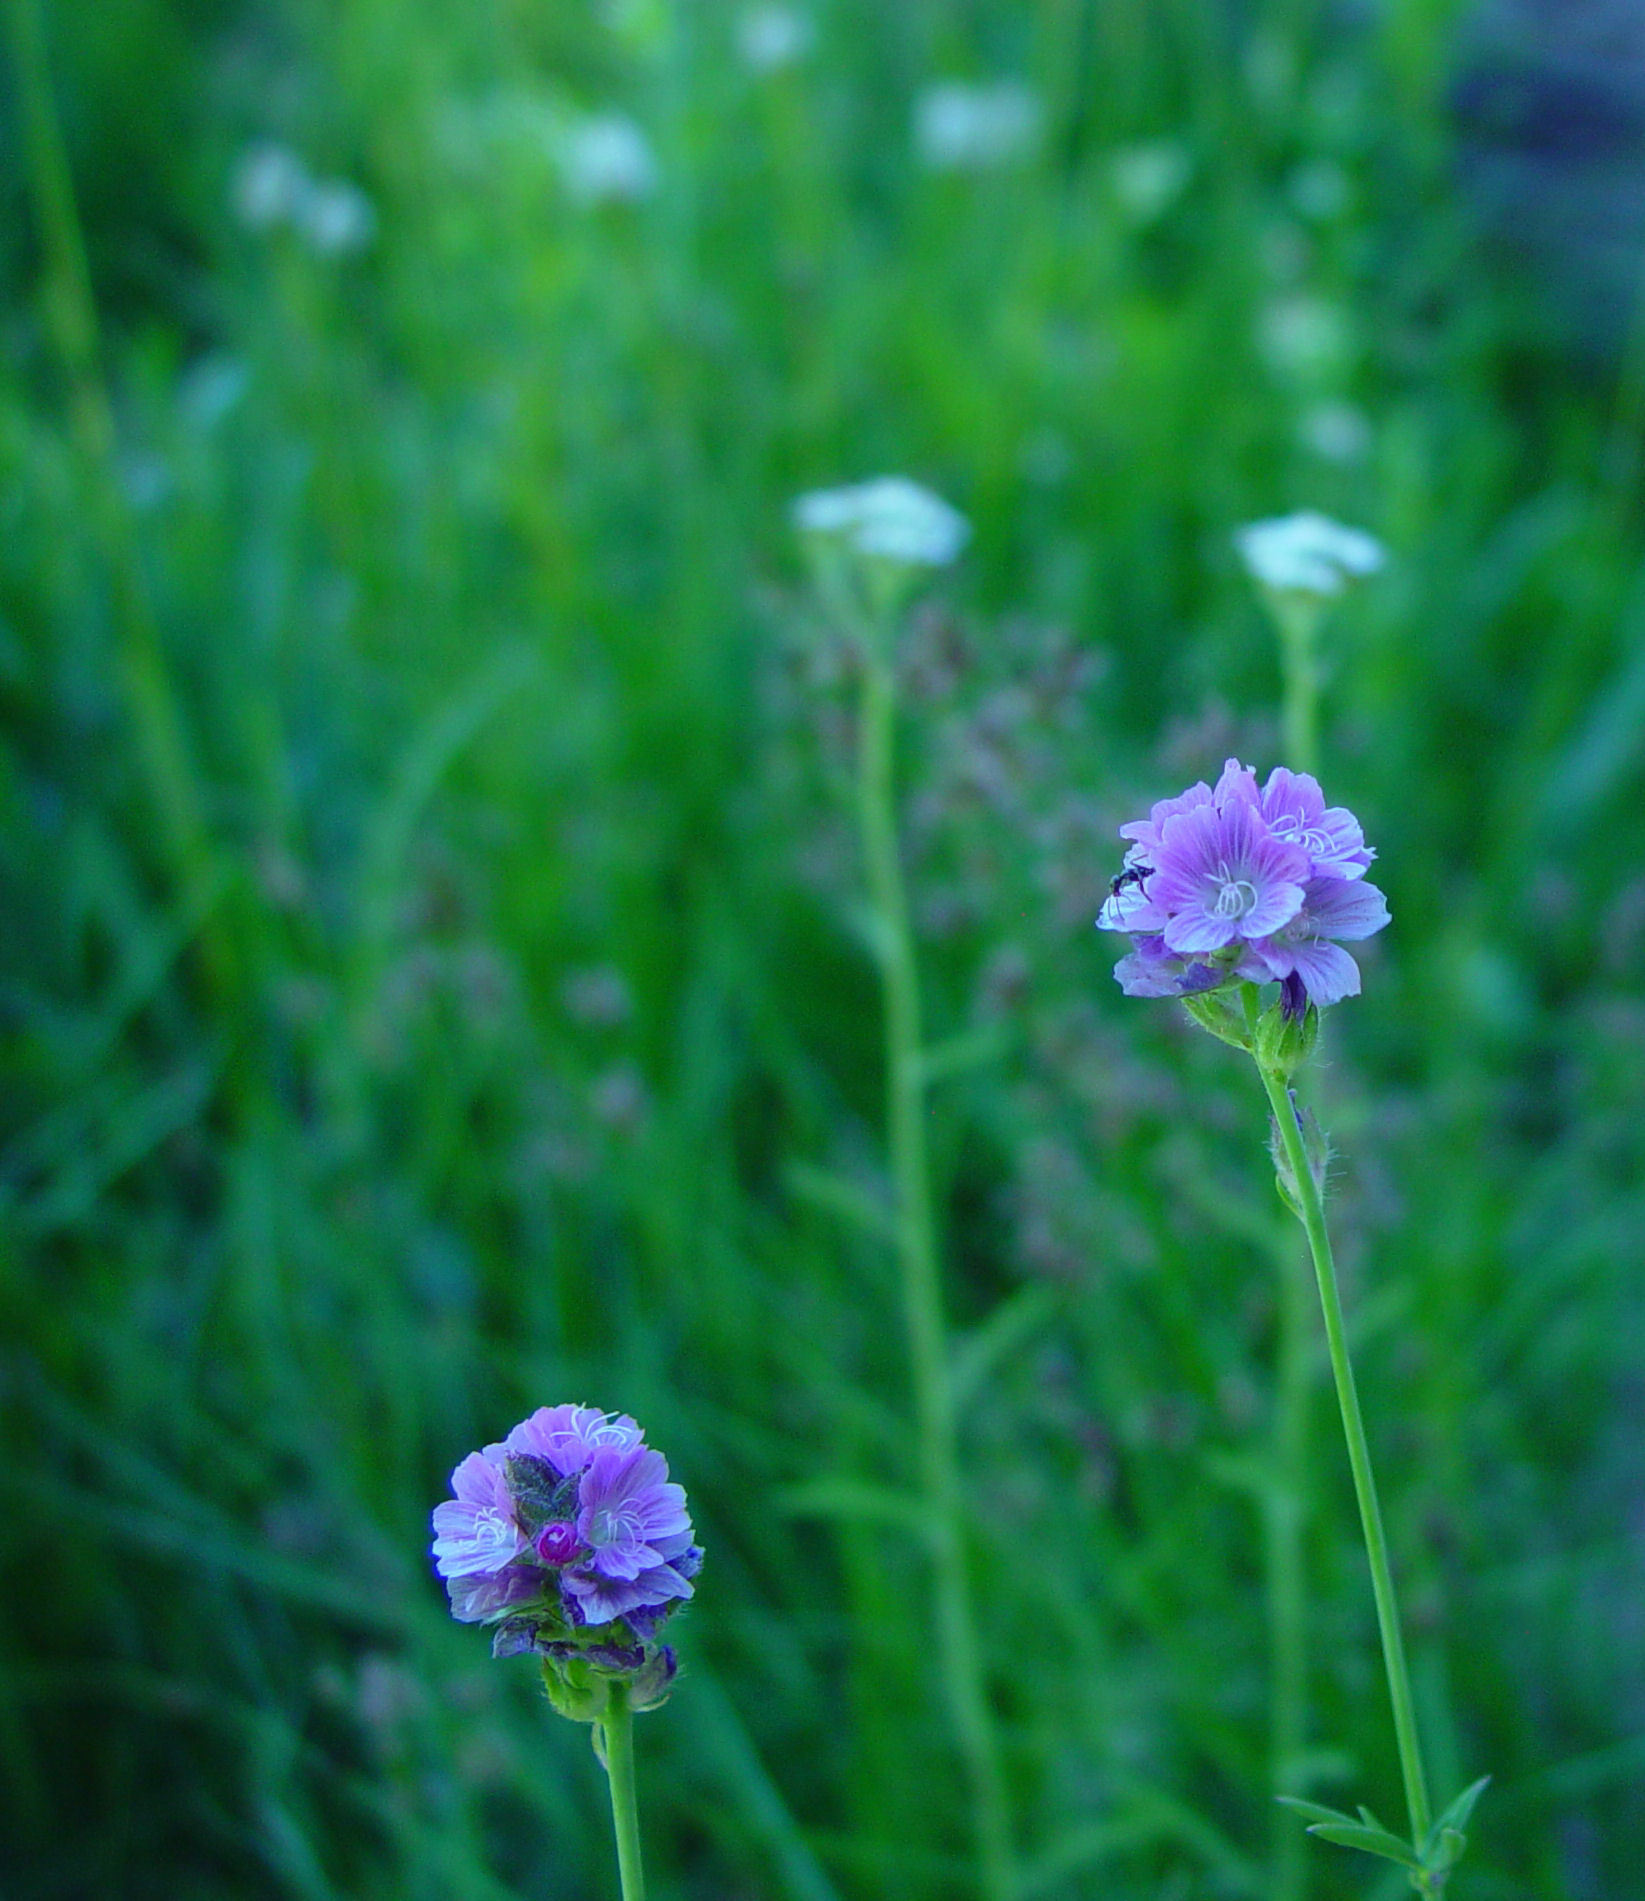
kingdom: Plantae
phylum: Tracheophyta
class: Magnoliopsida
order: Malvales
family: Malvaceae
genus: Sidalcea
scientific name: Sidalcea ranunculacea
